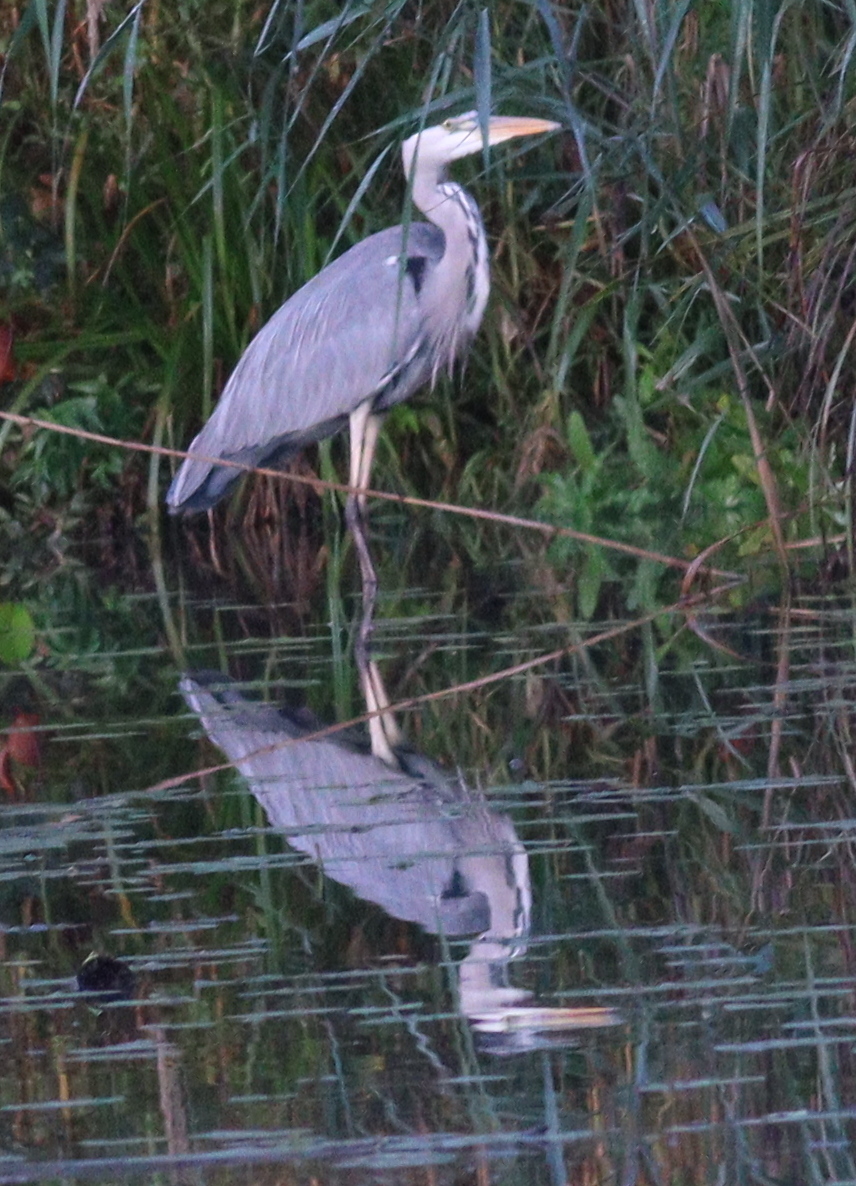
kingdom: Animalia
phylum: Chordata
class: Aves
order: Pelecaniformes
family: Ardeidae
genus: Ardea
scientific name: Ardea cinerea
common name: Grey heron
